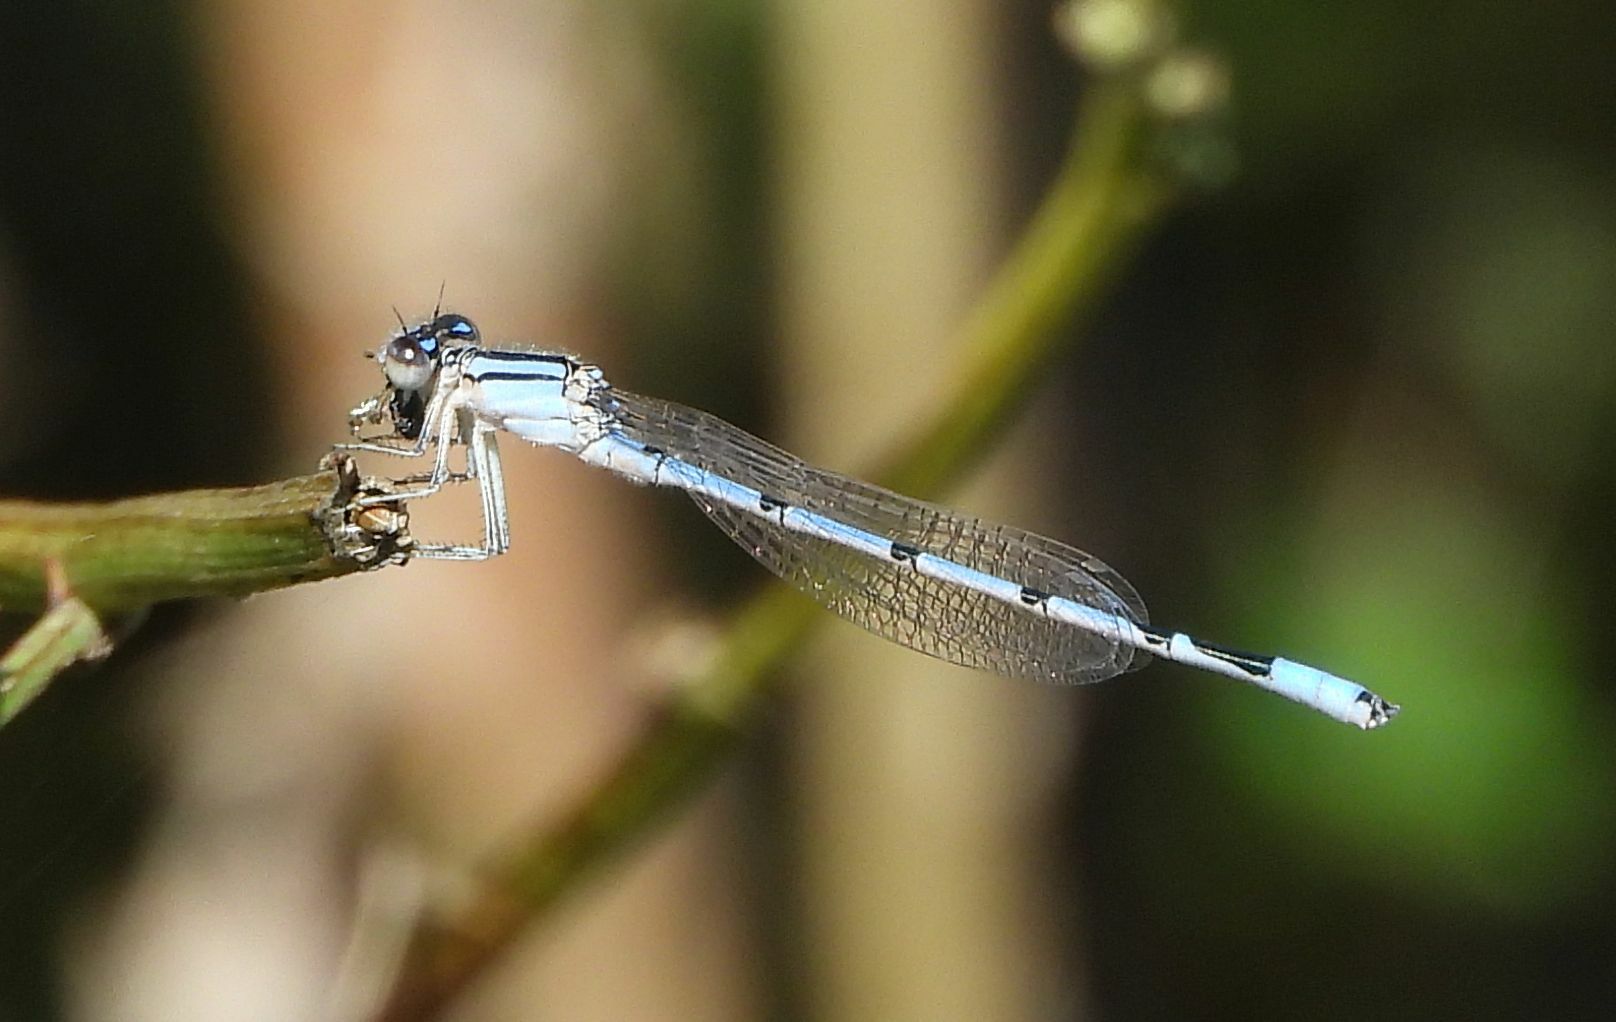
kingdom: Animalia
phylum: Arthropoda
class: Insecta
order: Odonata
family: Coenagrionidae
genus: Enallagma
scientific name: Enallagma civile
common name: Damselfly
